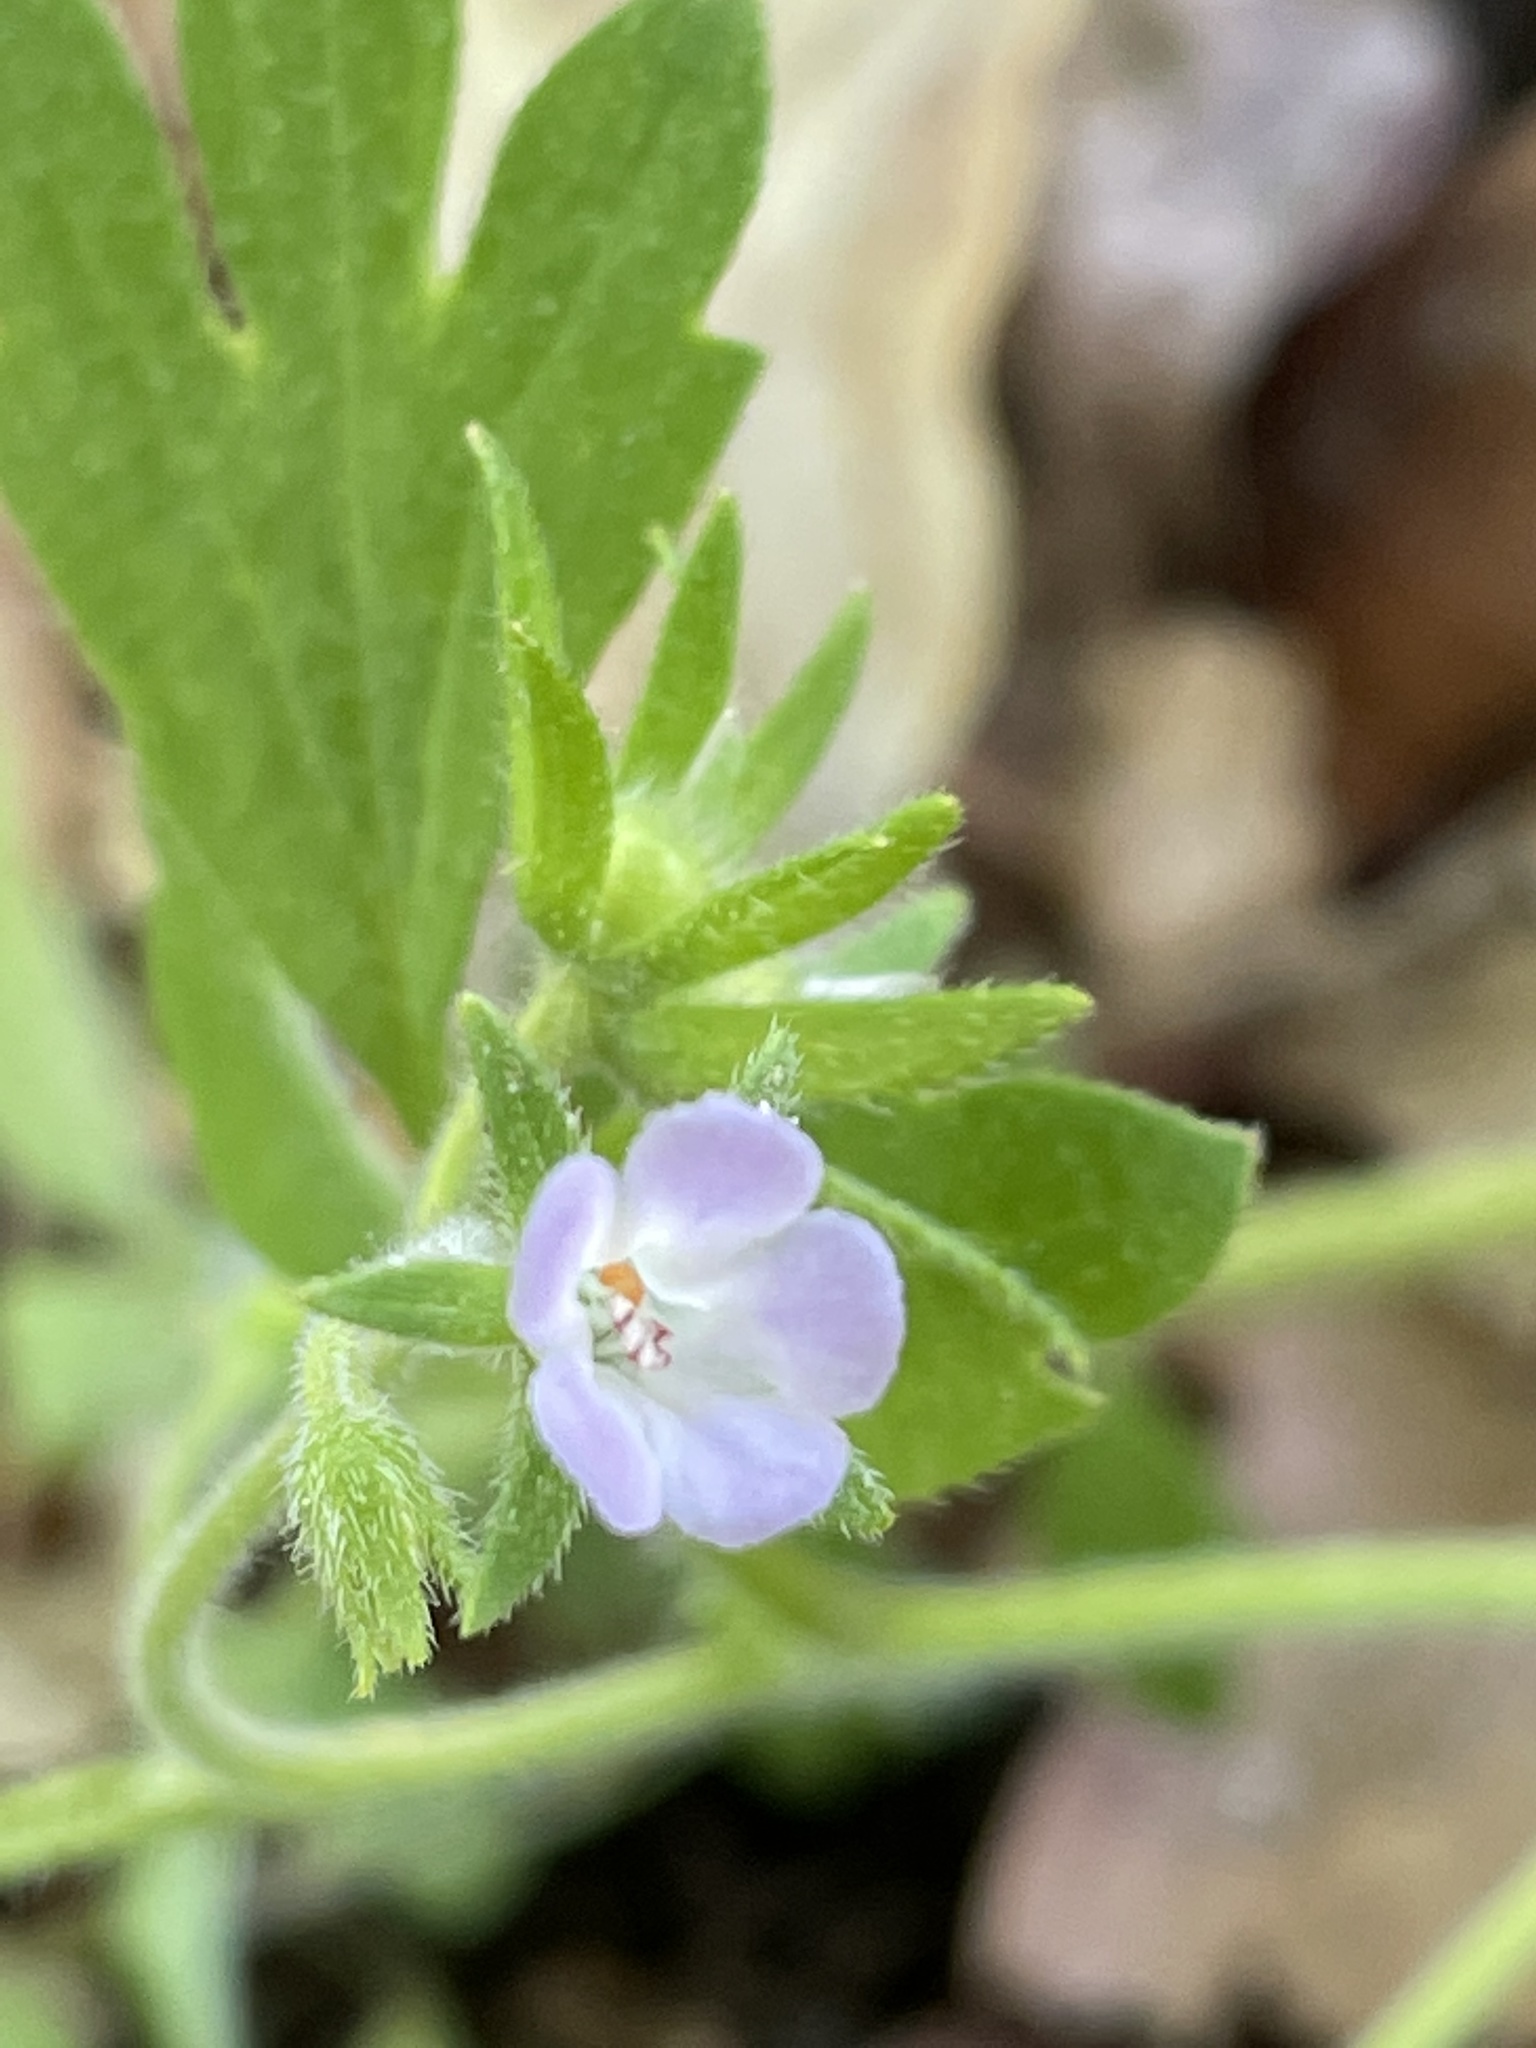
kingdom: Plantae
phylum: Tracheophyta
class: Magnoliopsida
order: Boraginales
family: Hydrophyllaceae
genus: Phacelia
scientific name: Phacelia covillei
